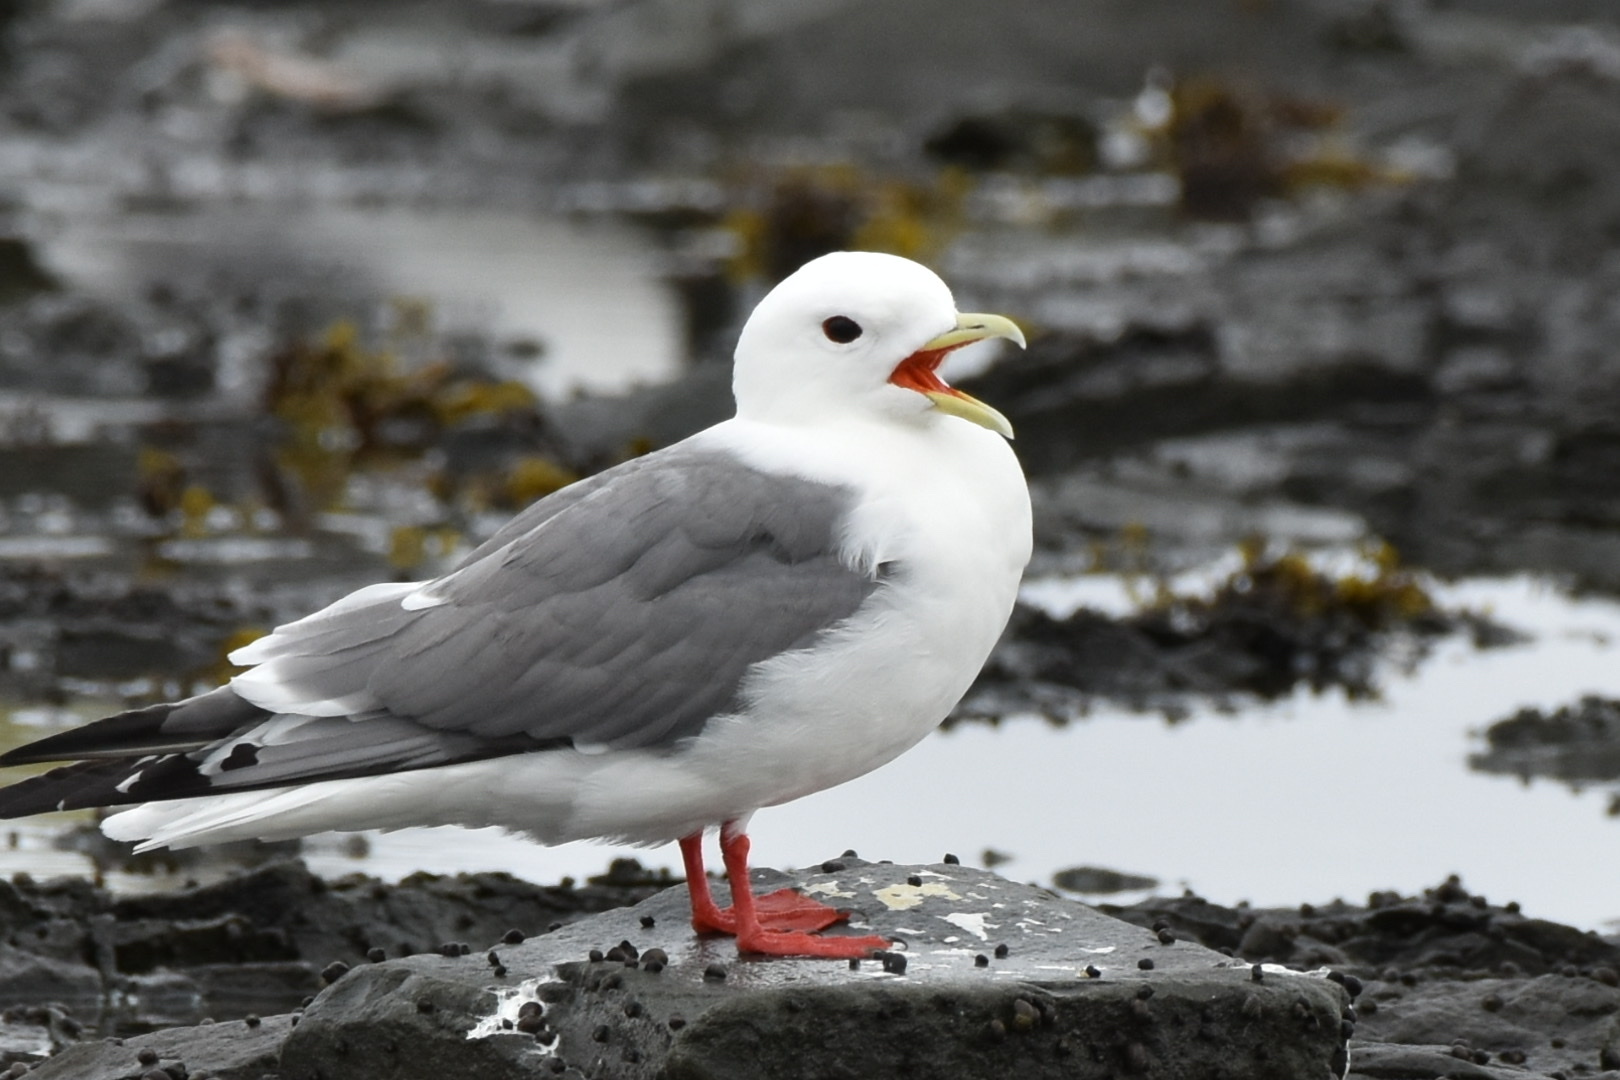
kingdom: Animalia
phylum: Chordata
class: Aves
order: Charadriiformes
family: Laridae
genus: Rissa
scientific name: Rissa brevirostris
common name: Red-legged kittiwake
